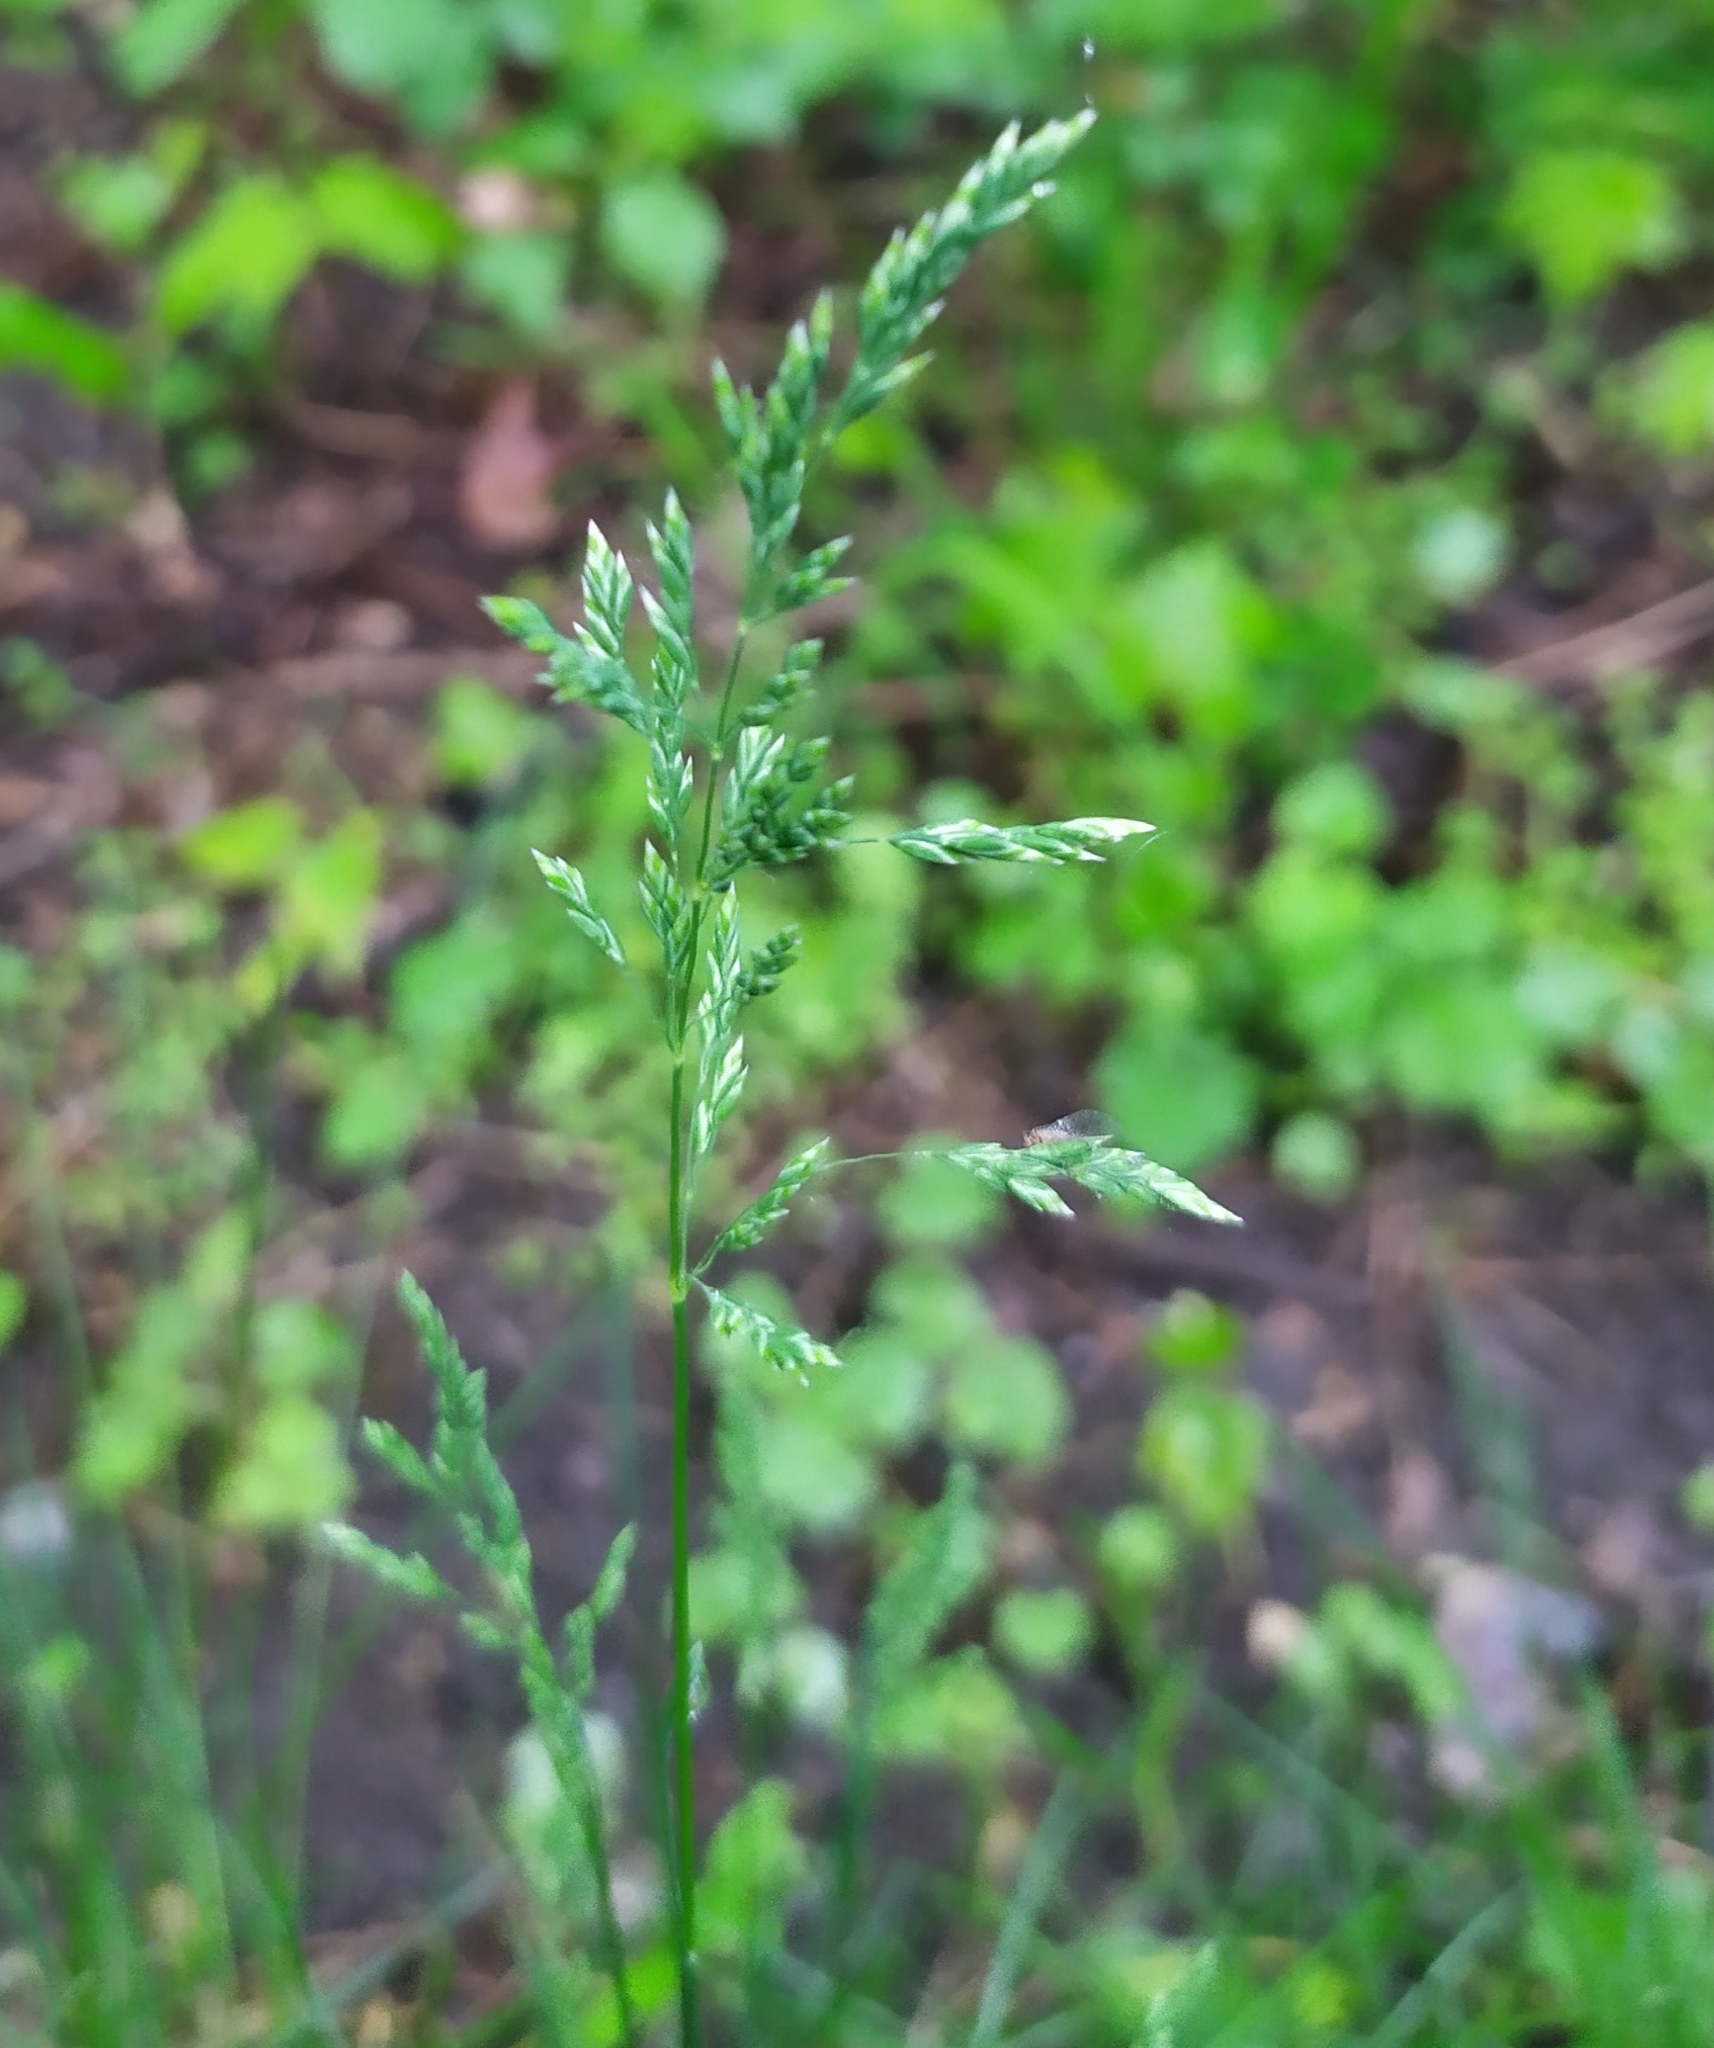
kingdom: Plantae
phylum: Tracheophyta
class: Liliopsida
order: Poales
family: Poaceae
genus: Poa
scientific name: Poa angustifolia
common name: Narrow-leaved meadow-grass
